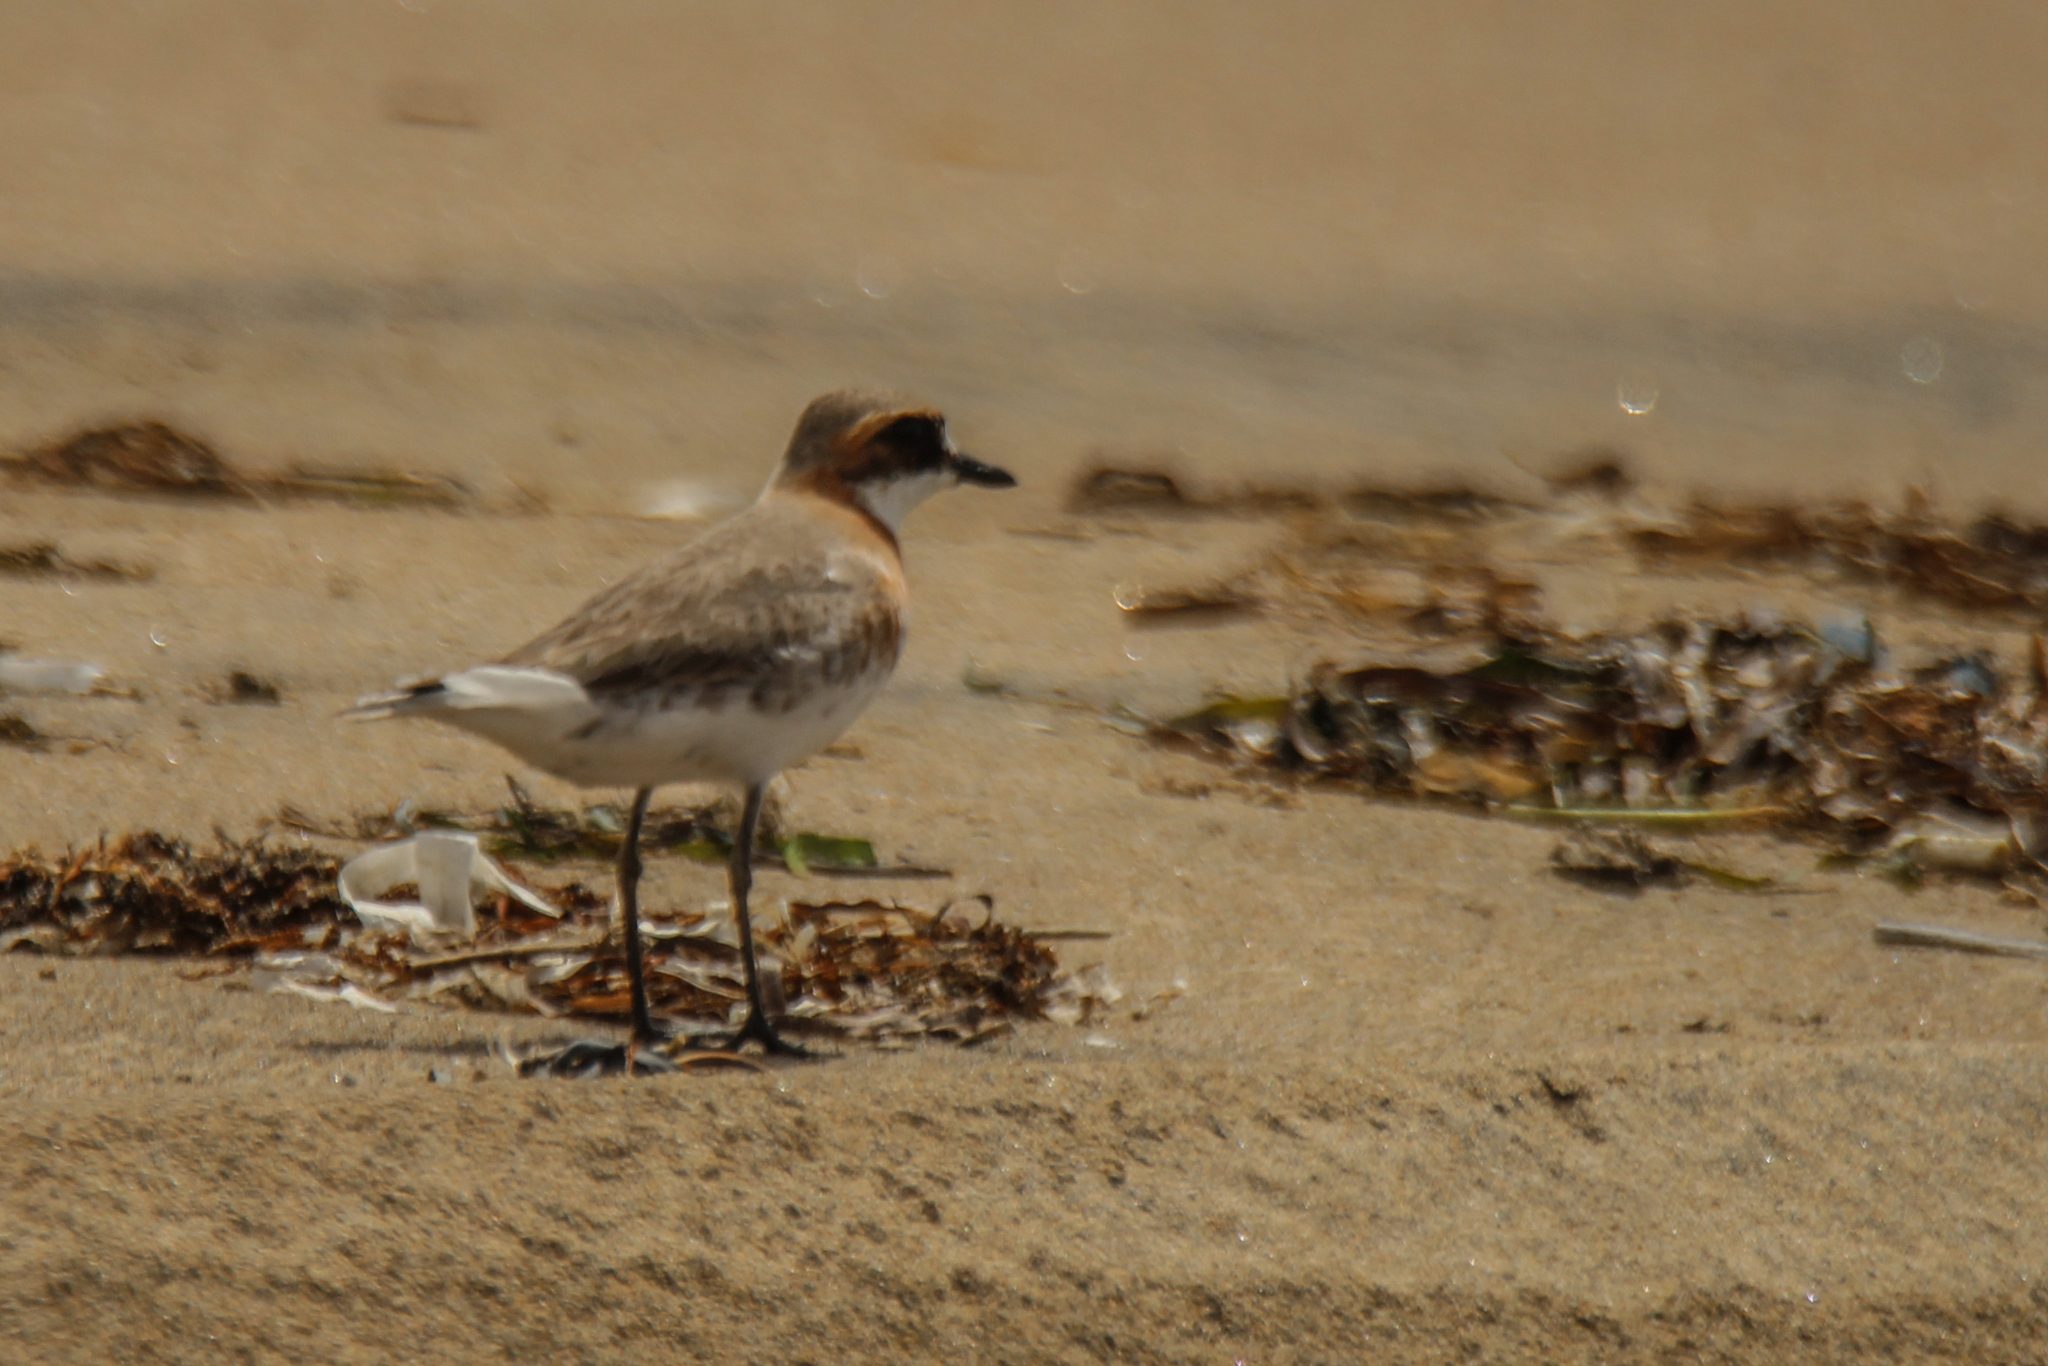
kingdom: Animalia
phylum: Chordata
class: Aves
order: Charadriiformes
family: Charadriidae
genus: Anarhynchus
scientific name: Anarhynchus
